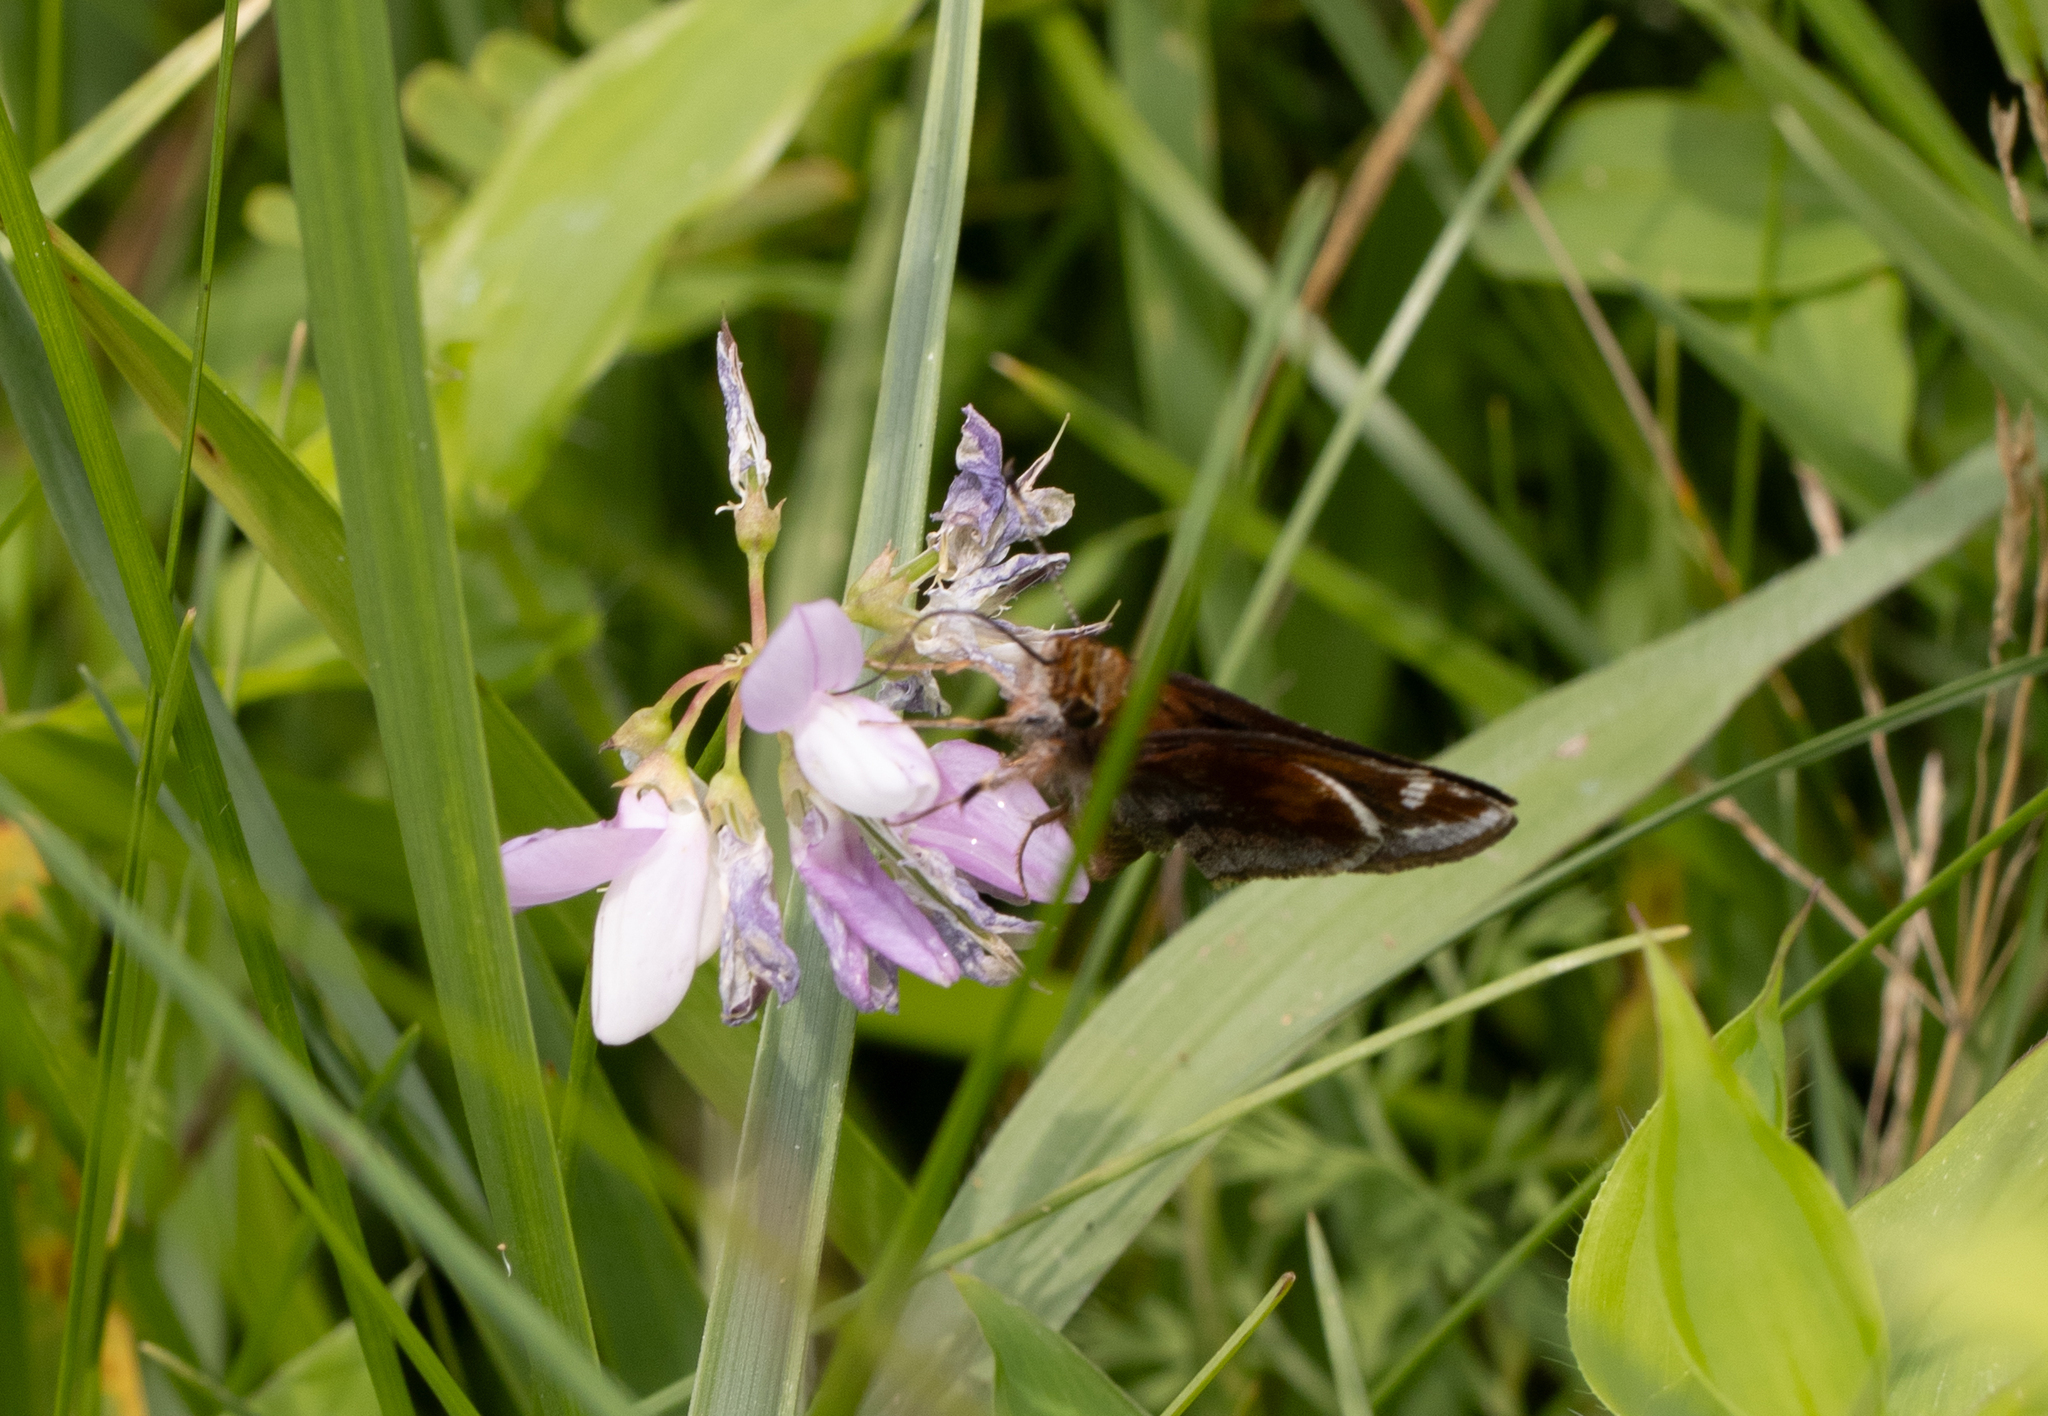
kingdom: Animalia
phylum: Arthropoda
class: Insecta
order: Lepidoptera
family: Hesperiidae
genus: Lon
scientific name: Lon zabulon
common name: Zabulon skipper
